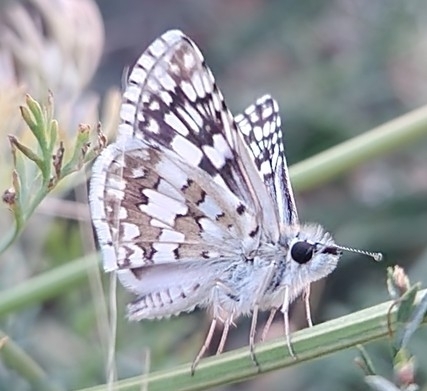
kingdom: Animalia
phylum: Arthropoda
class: Insecta
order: Lepidoptera
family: Hesperiidae
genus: Burnsius
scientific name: Burnsius communis
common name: Common checkered-skipper
